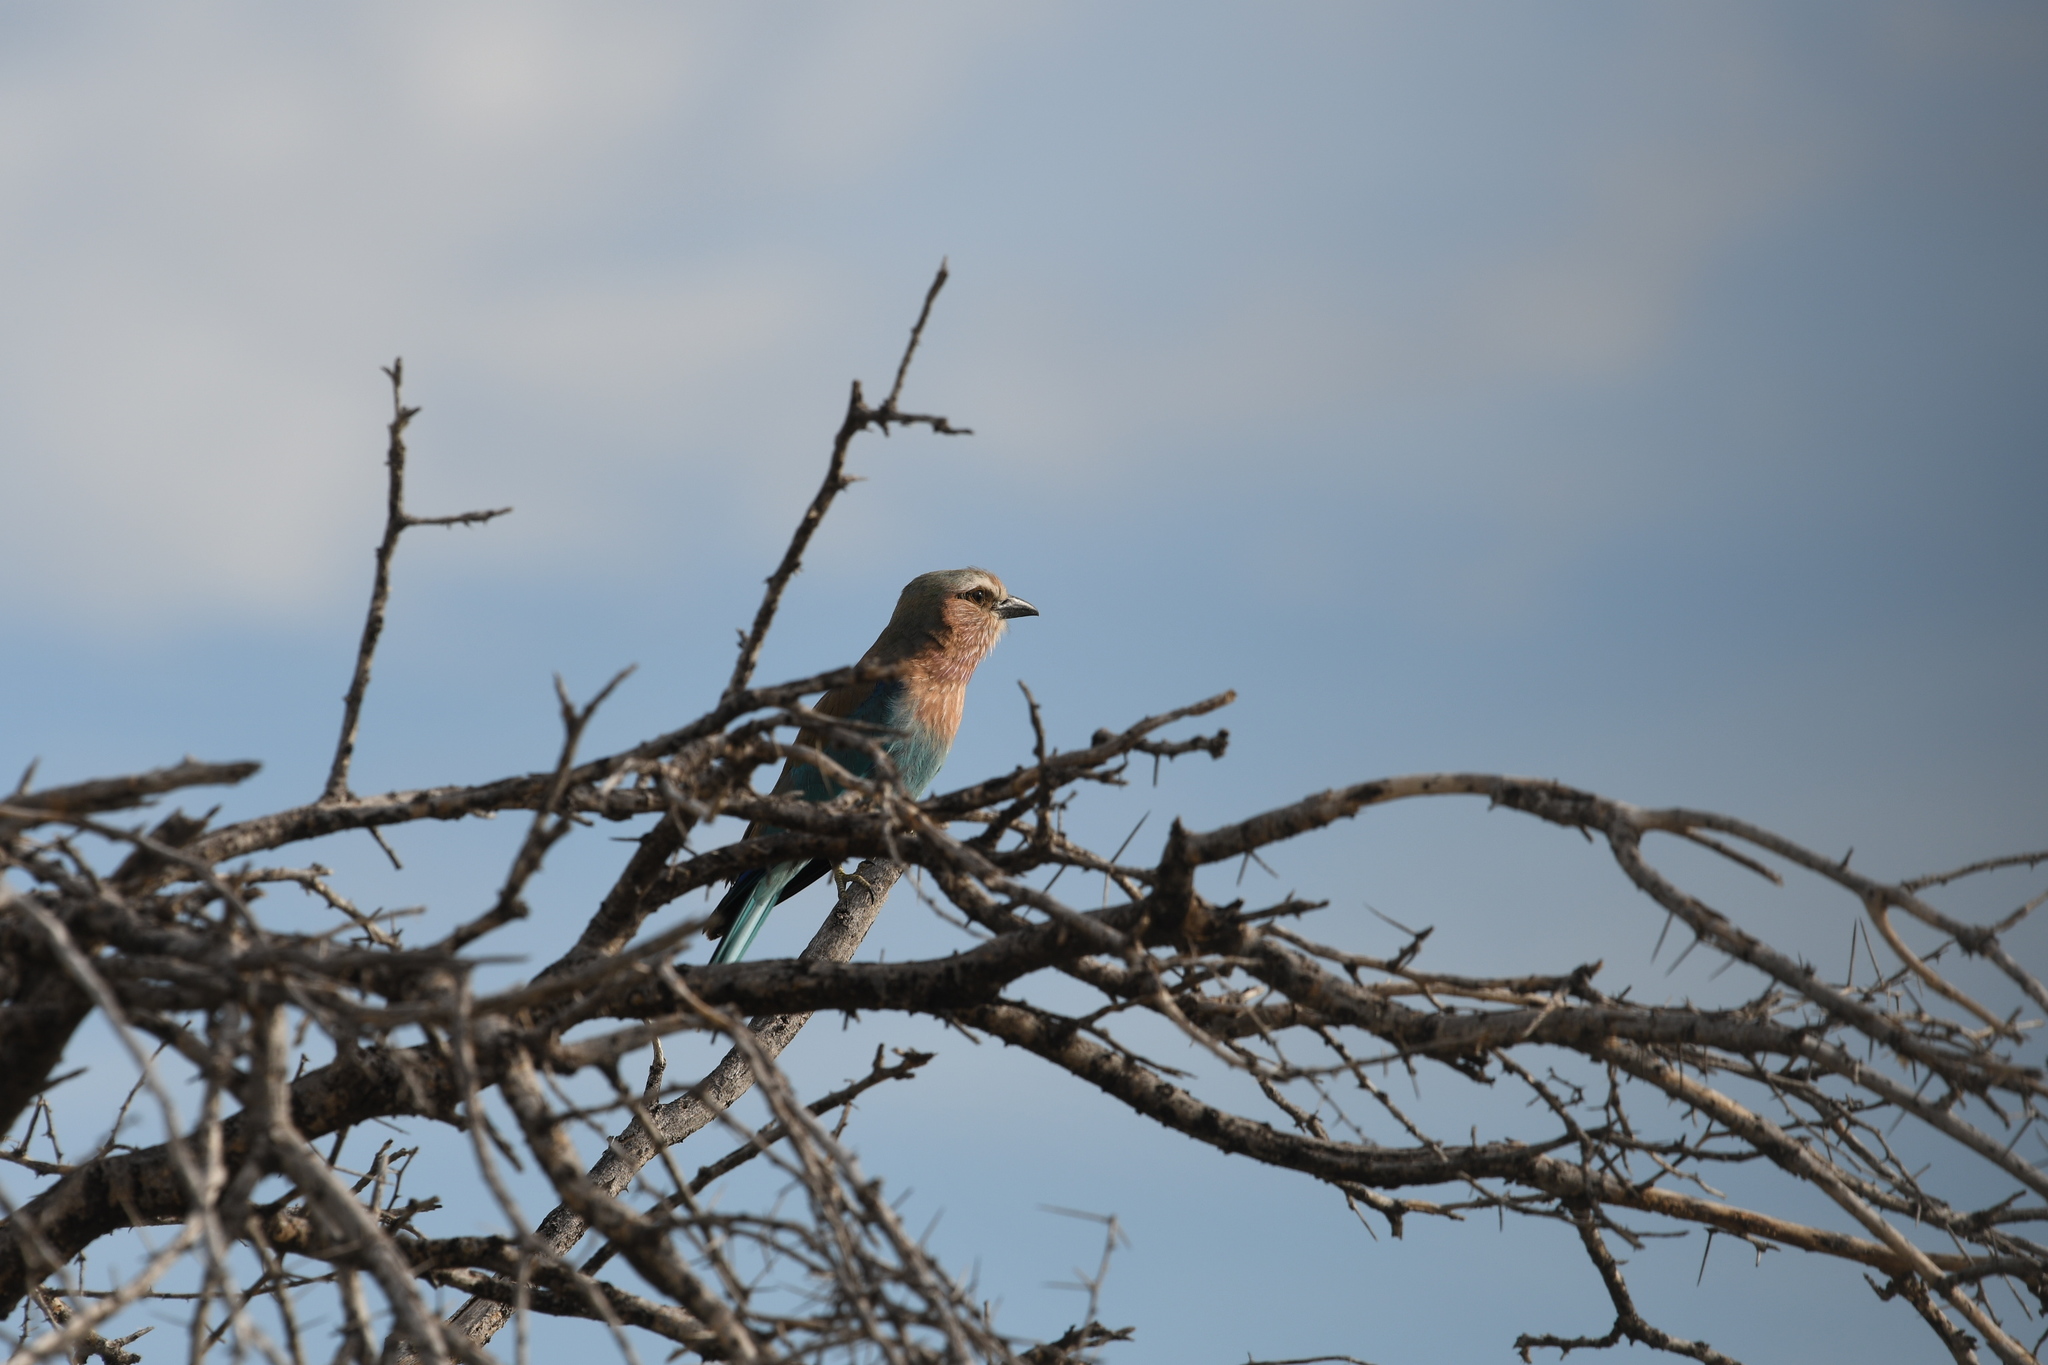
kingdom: Animalia
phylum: Chordata
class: Aves
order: Coraciiformes
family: Coraciidae
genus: Coracias
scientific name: Coracias caudatus
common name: Lilac-breasted roller
